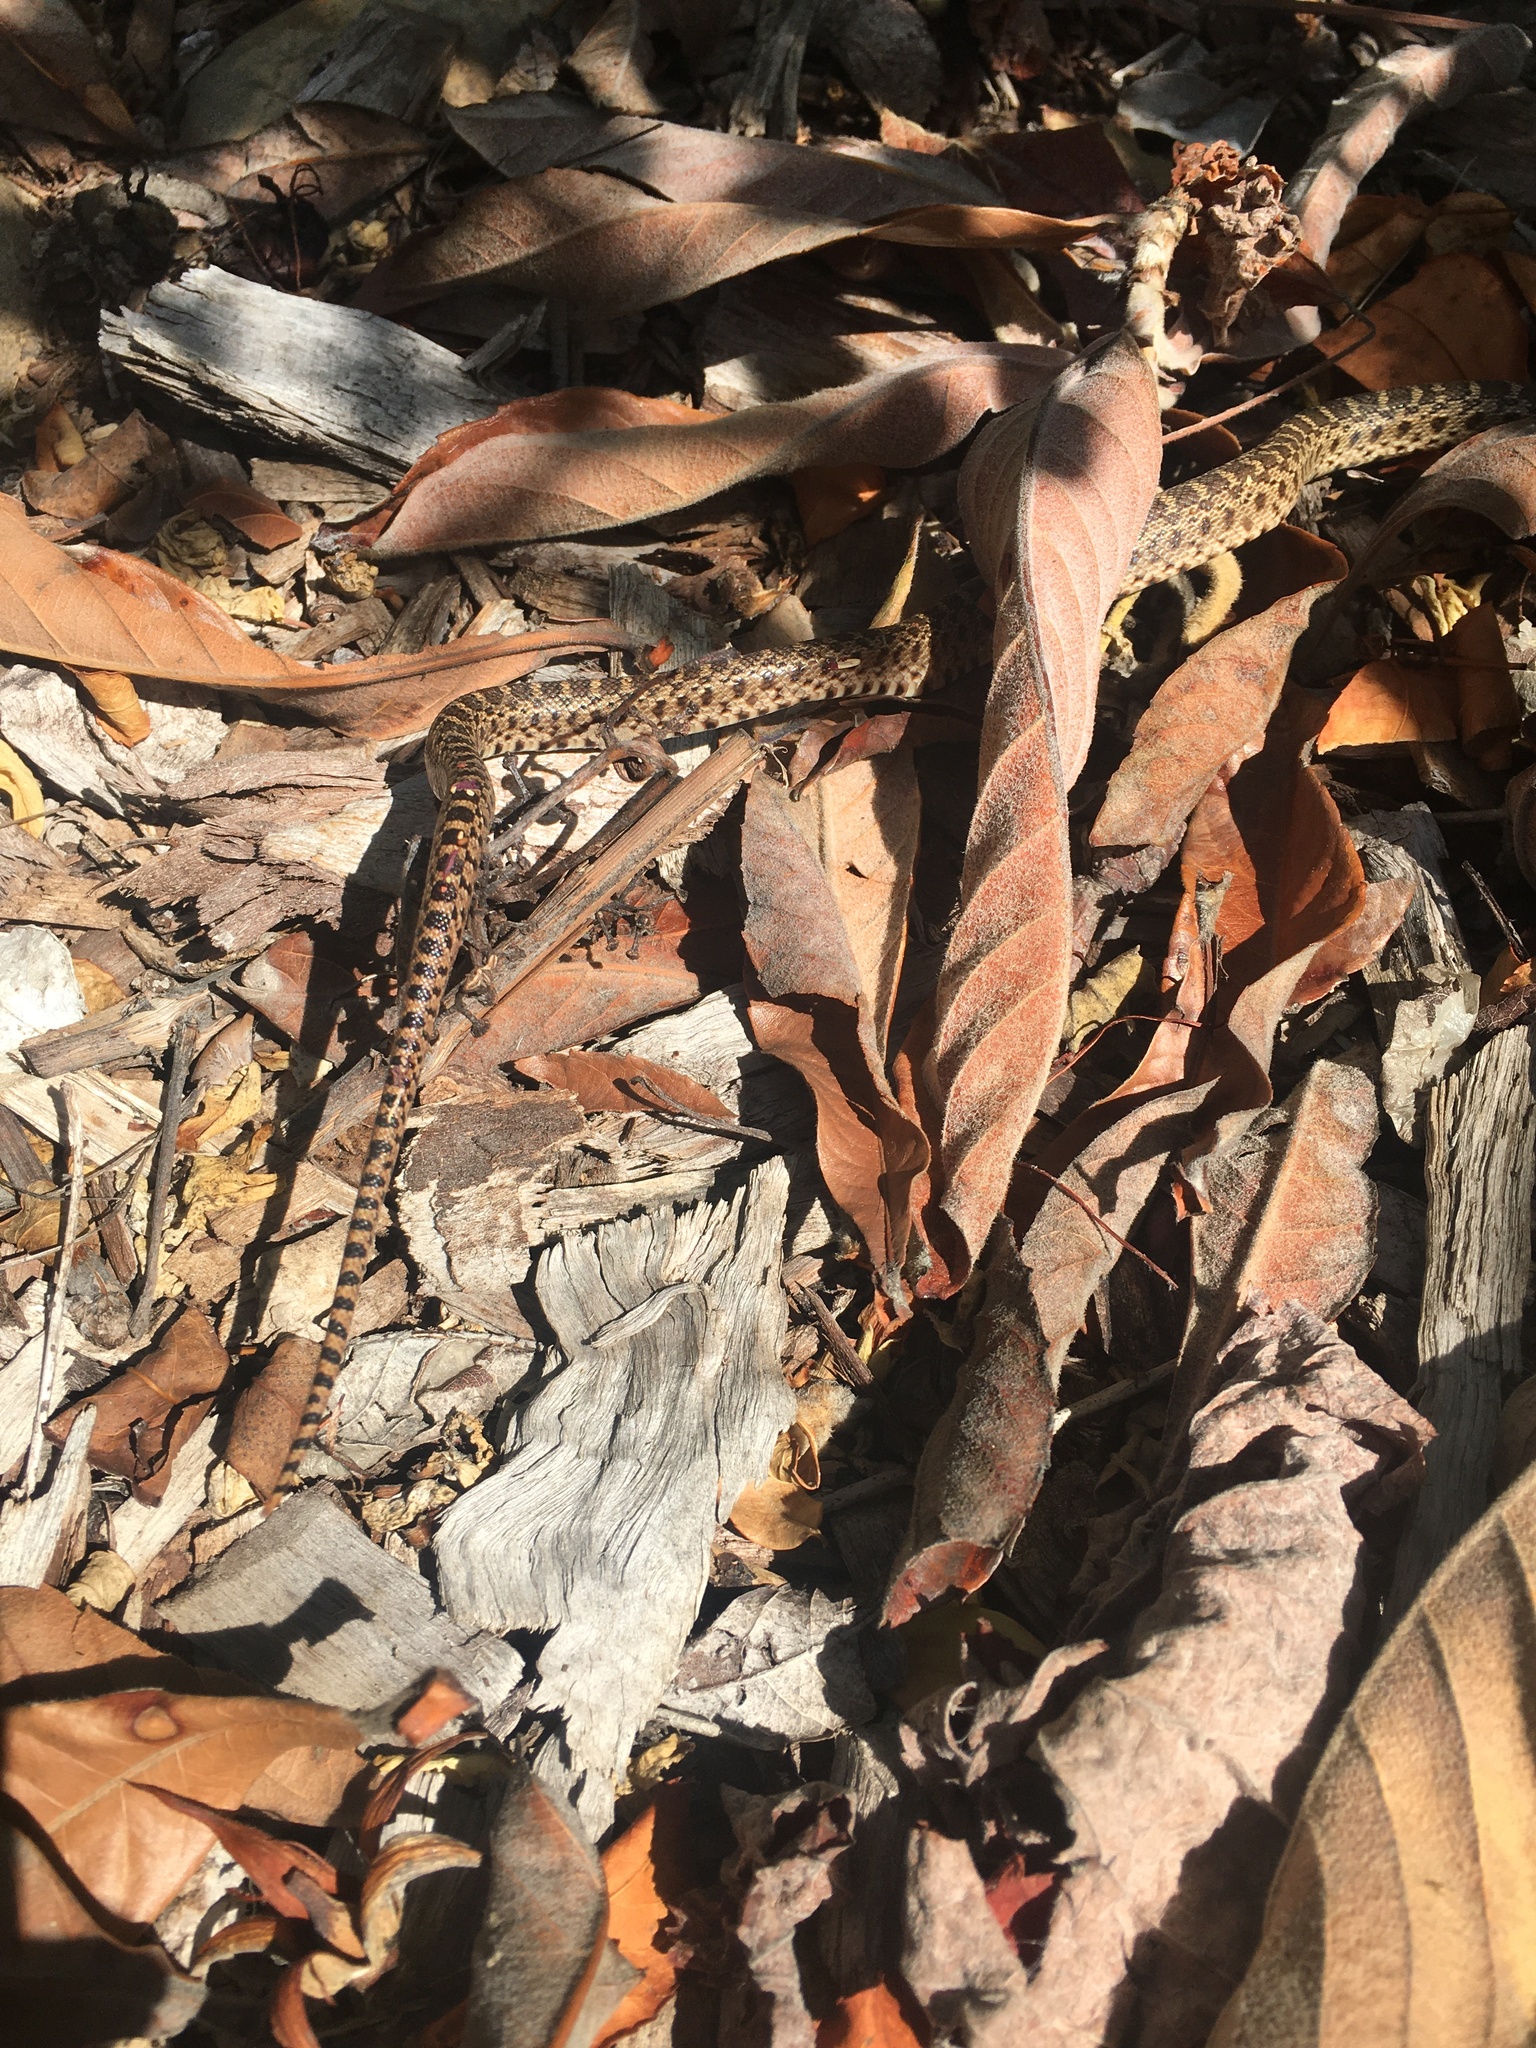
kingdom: Animalia
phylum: Chordata
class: Squamata
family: Colubridae
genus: Pituophis
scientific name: Pituophis catenifer
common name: Gopher snake
